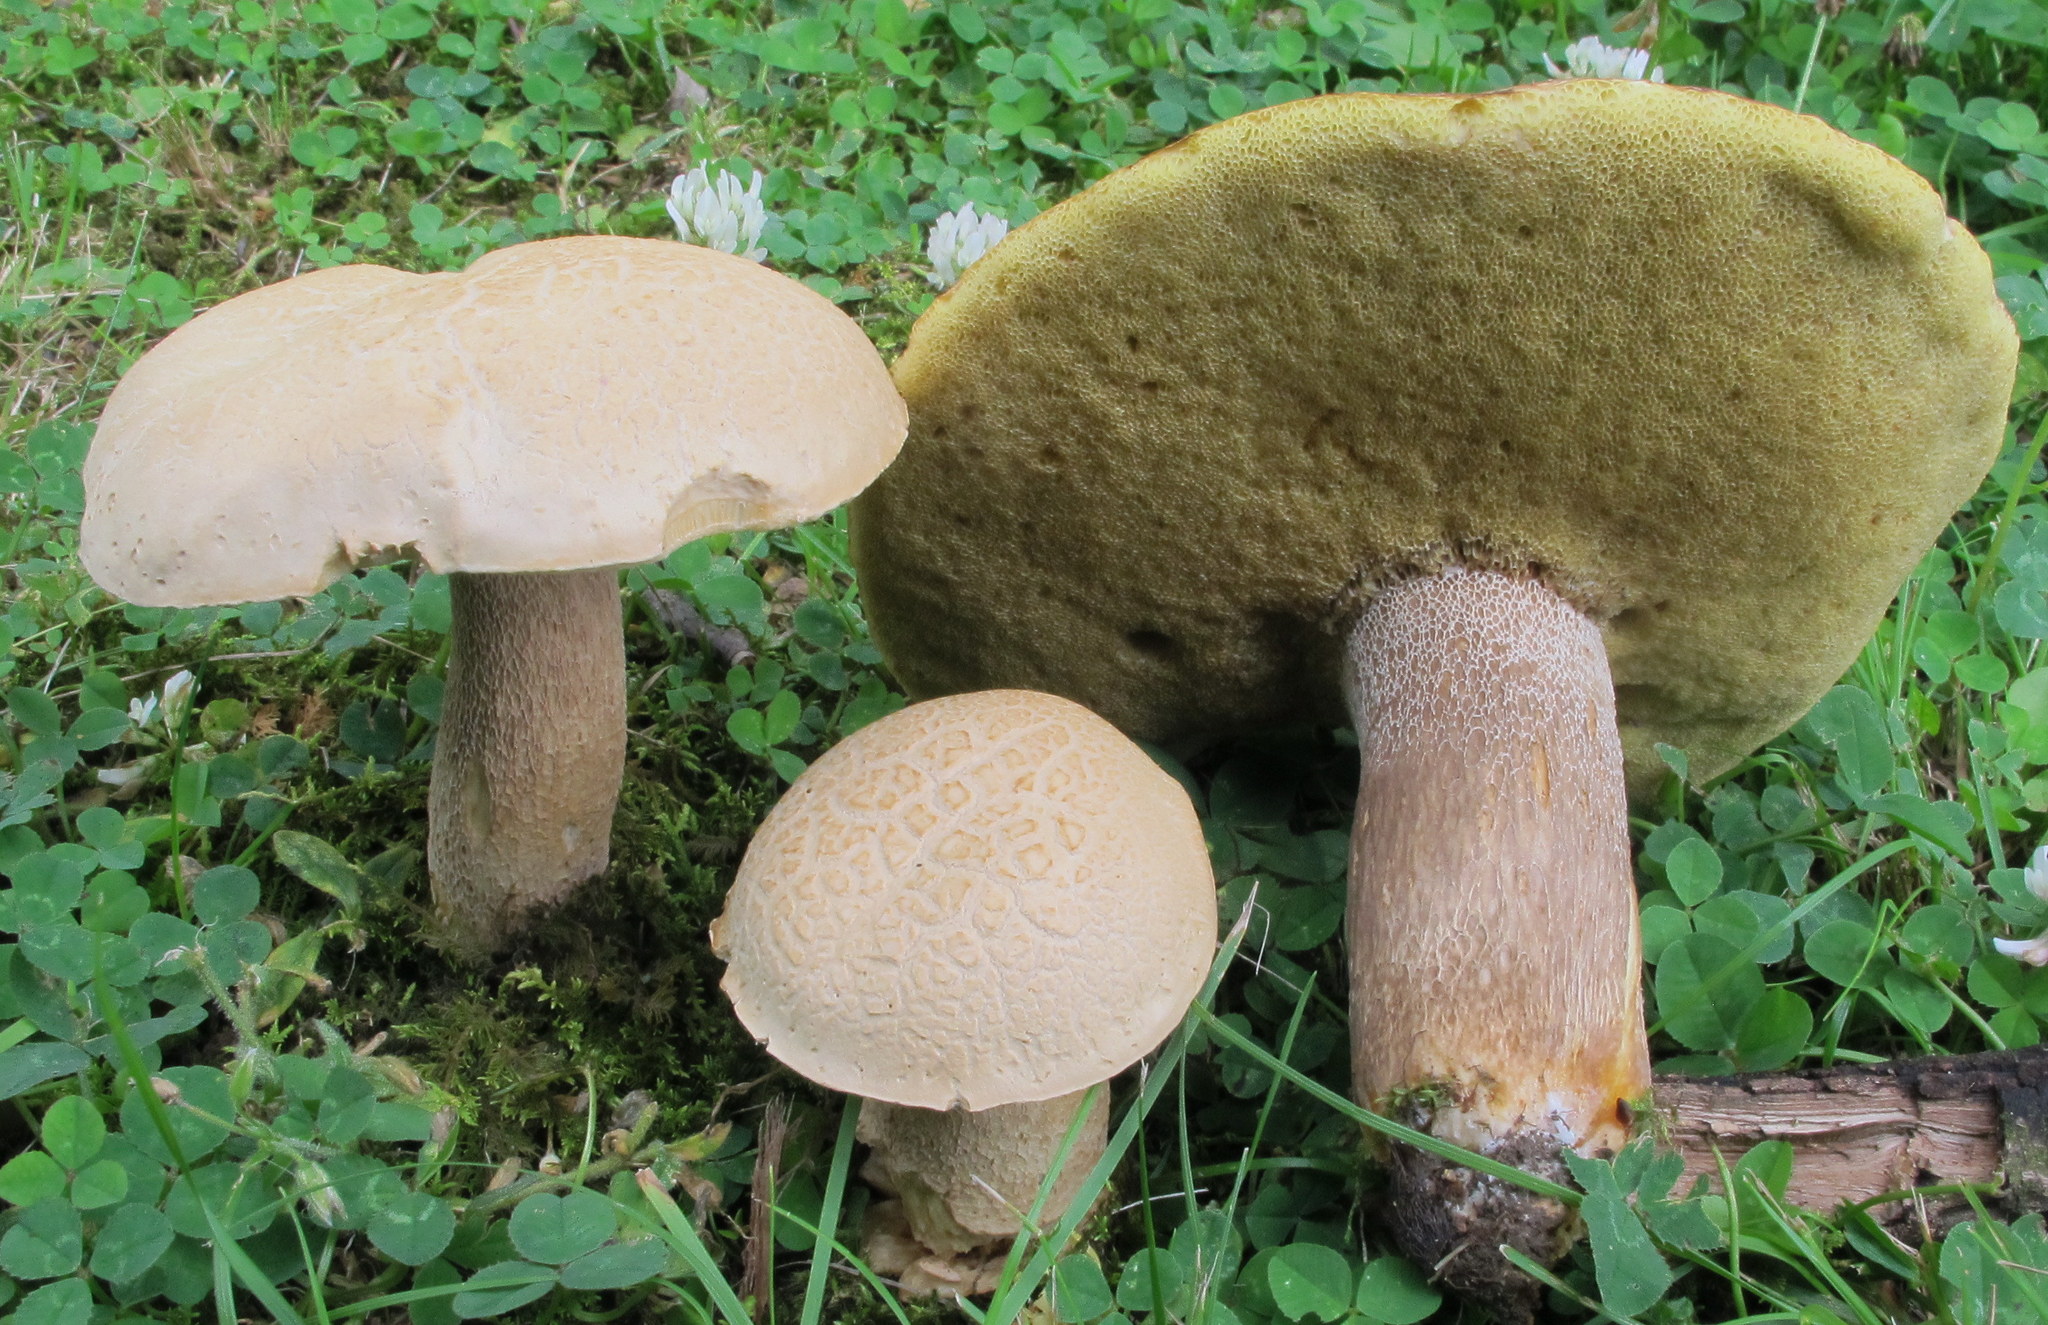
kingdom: Fungi
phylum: Basidiomycota
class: Agaricomycetes
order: Boletales
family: Boletaceae
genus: Boletus
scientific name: Boletus variipes
